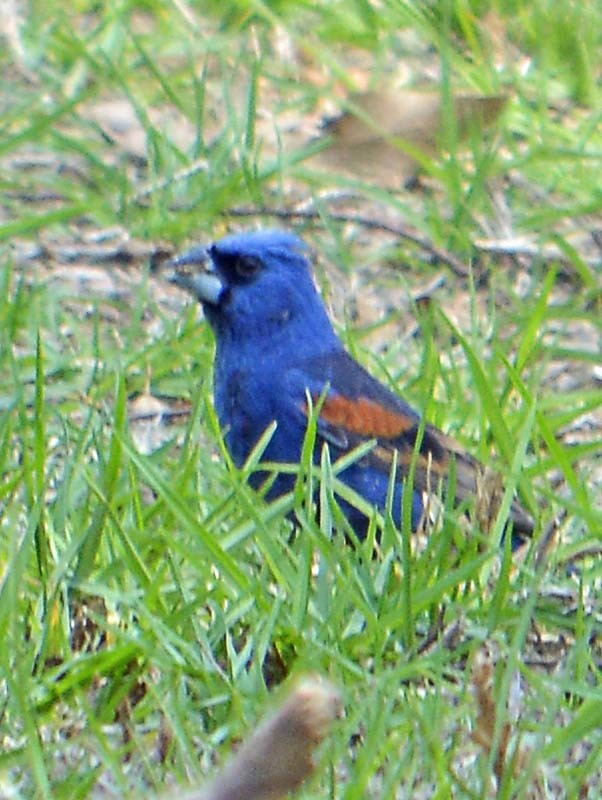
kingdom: Animalia
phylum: Chordata
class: Aves
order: Passeriformes
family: Cardinalidae
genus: Passerina
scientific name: Passerina caerulea
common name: Blue grosbeak
